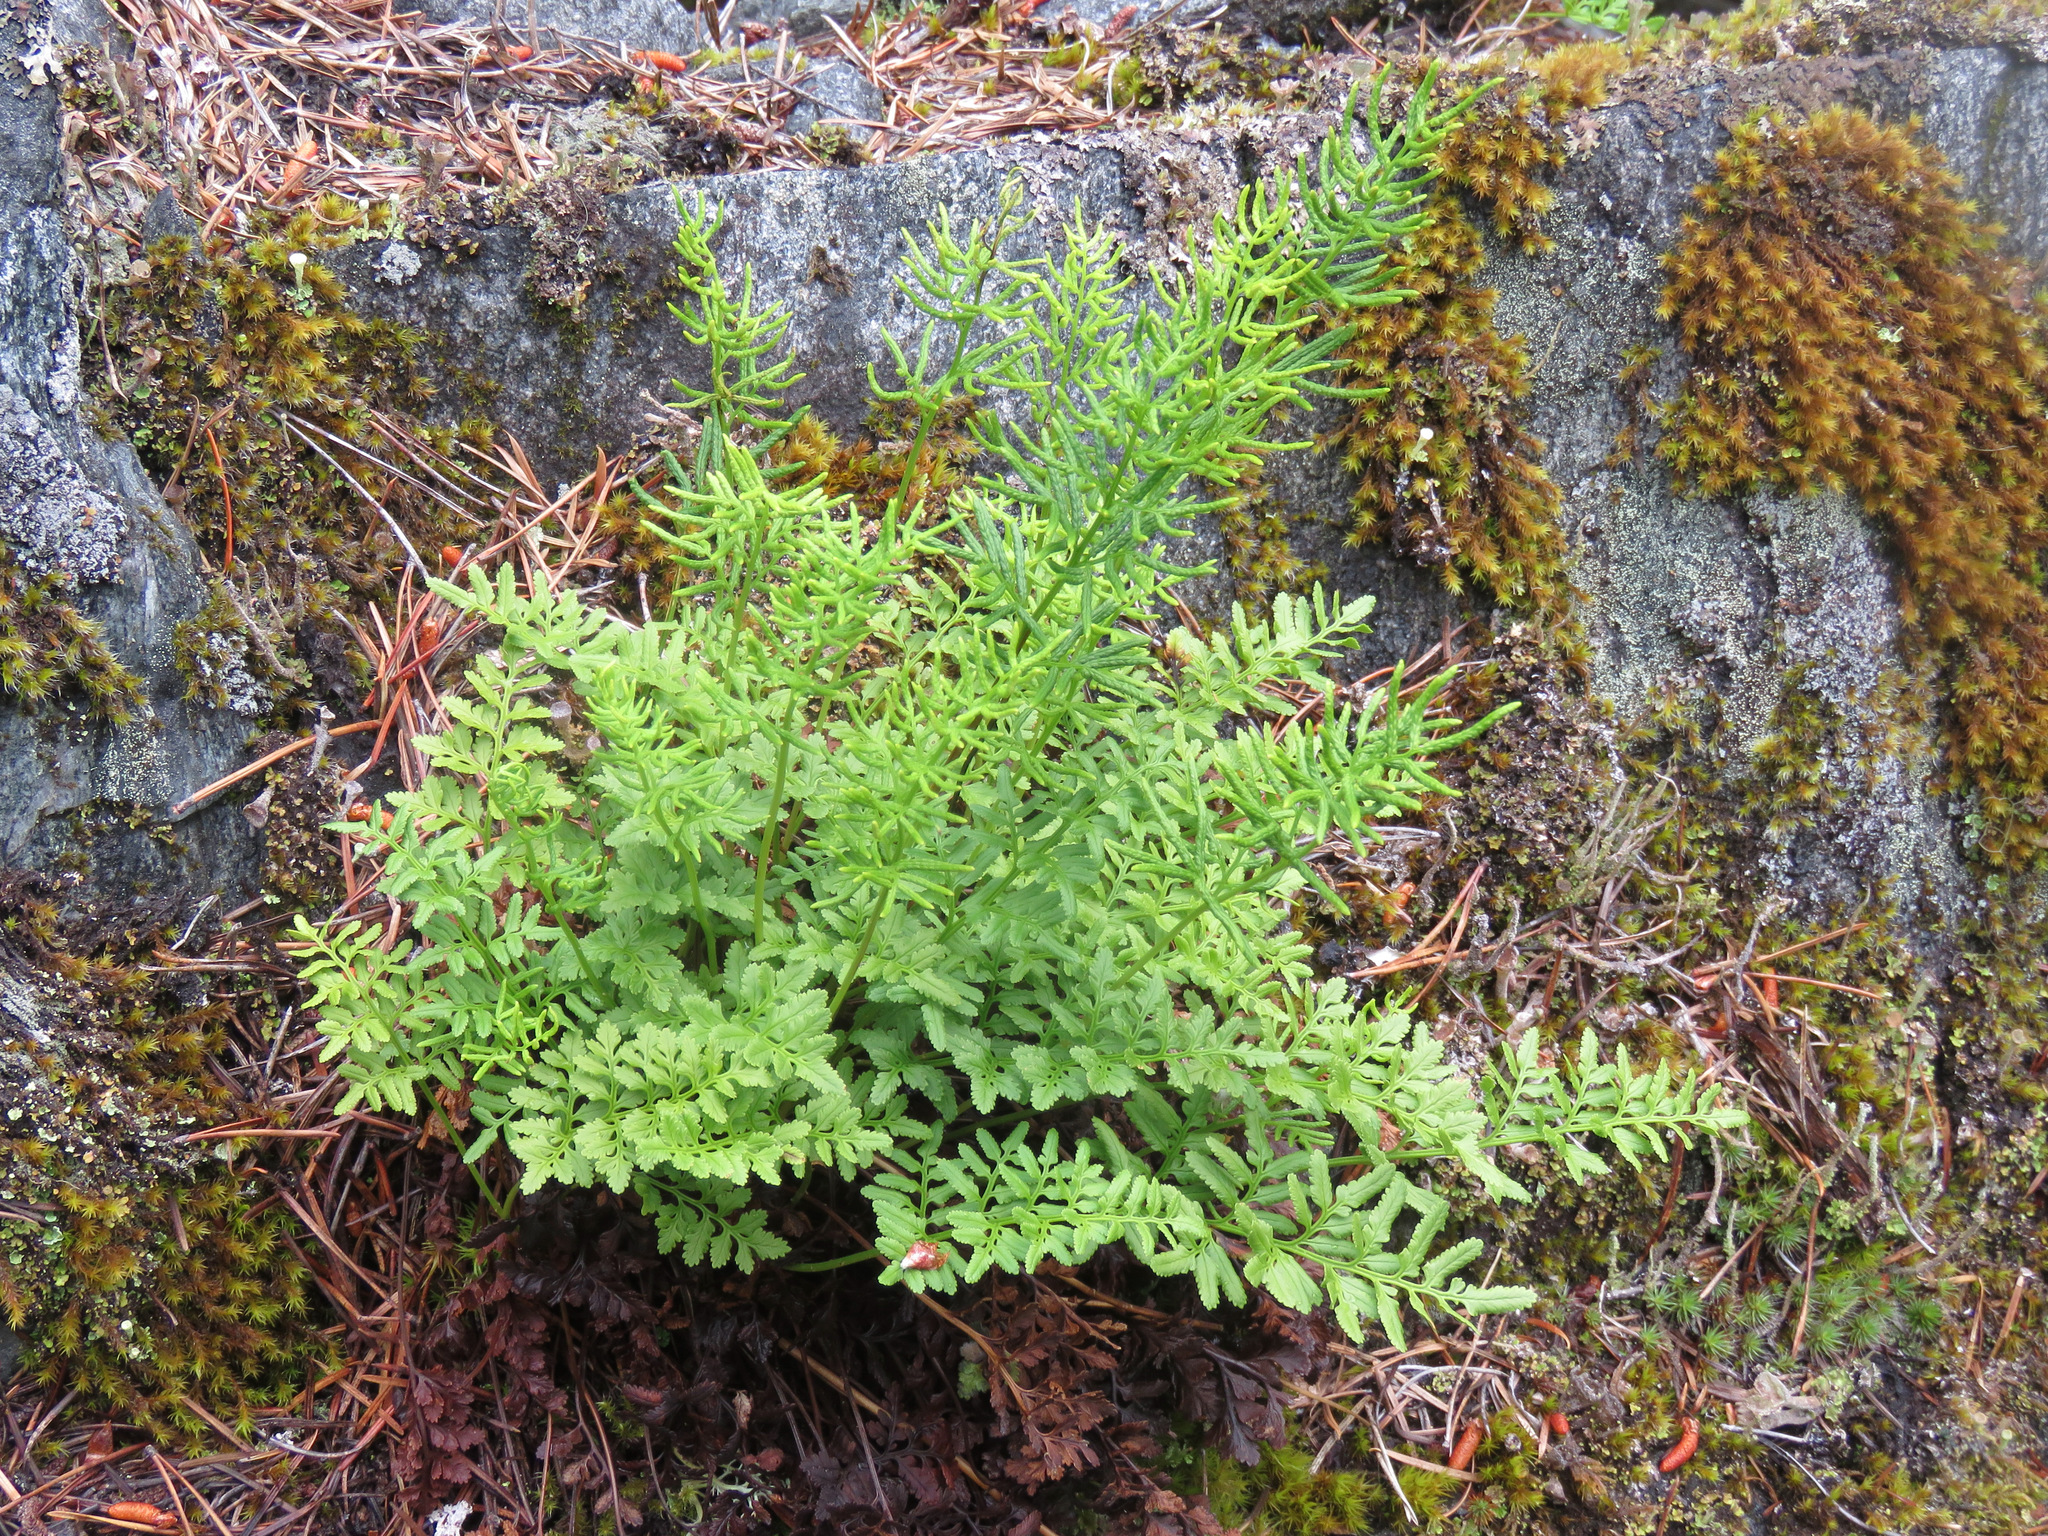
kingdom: Plantae
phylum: Tracheophyta
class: Polypodiopsida
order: Polypodiales
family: Pteridaceae
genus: Cryptogramma
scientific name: Cryptogramma acrostichoides
